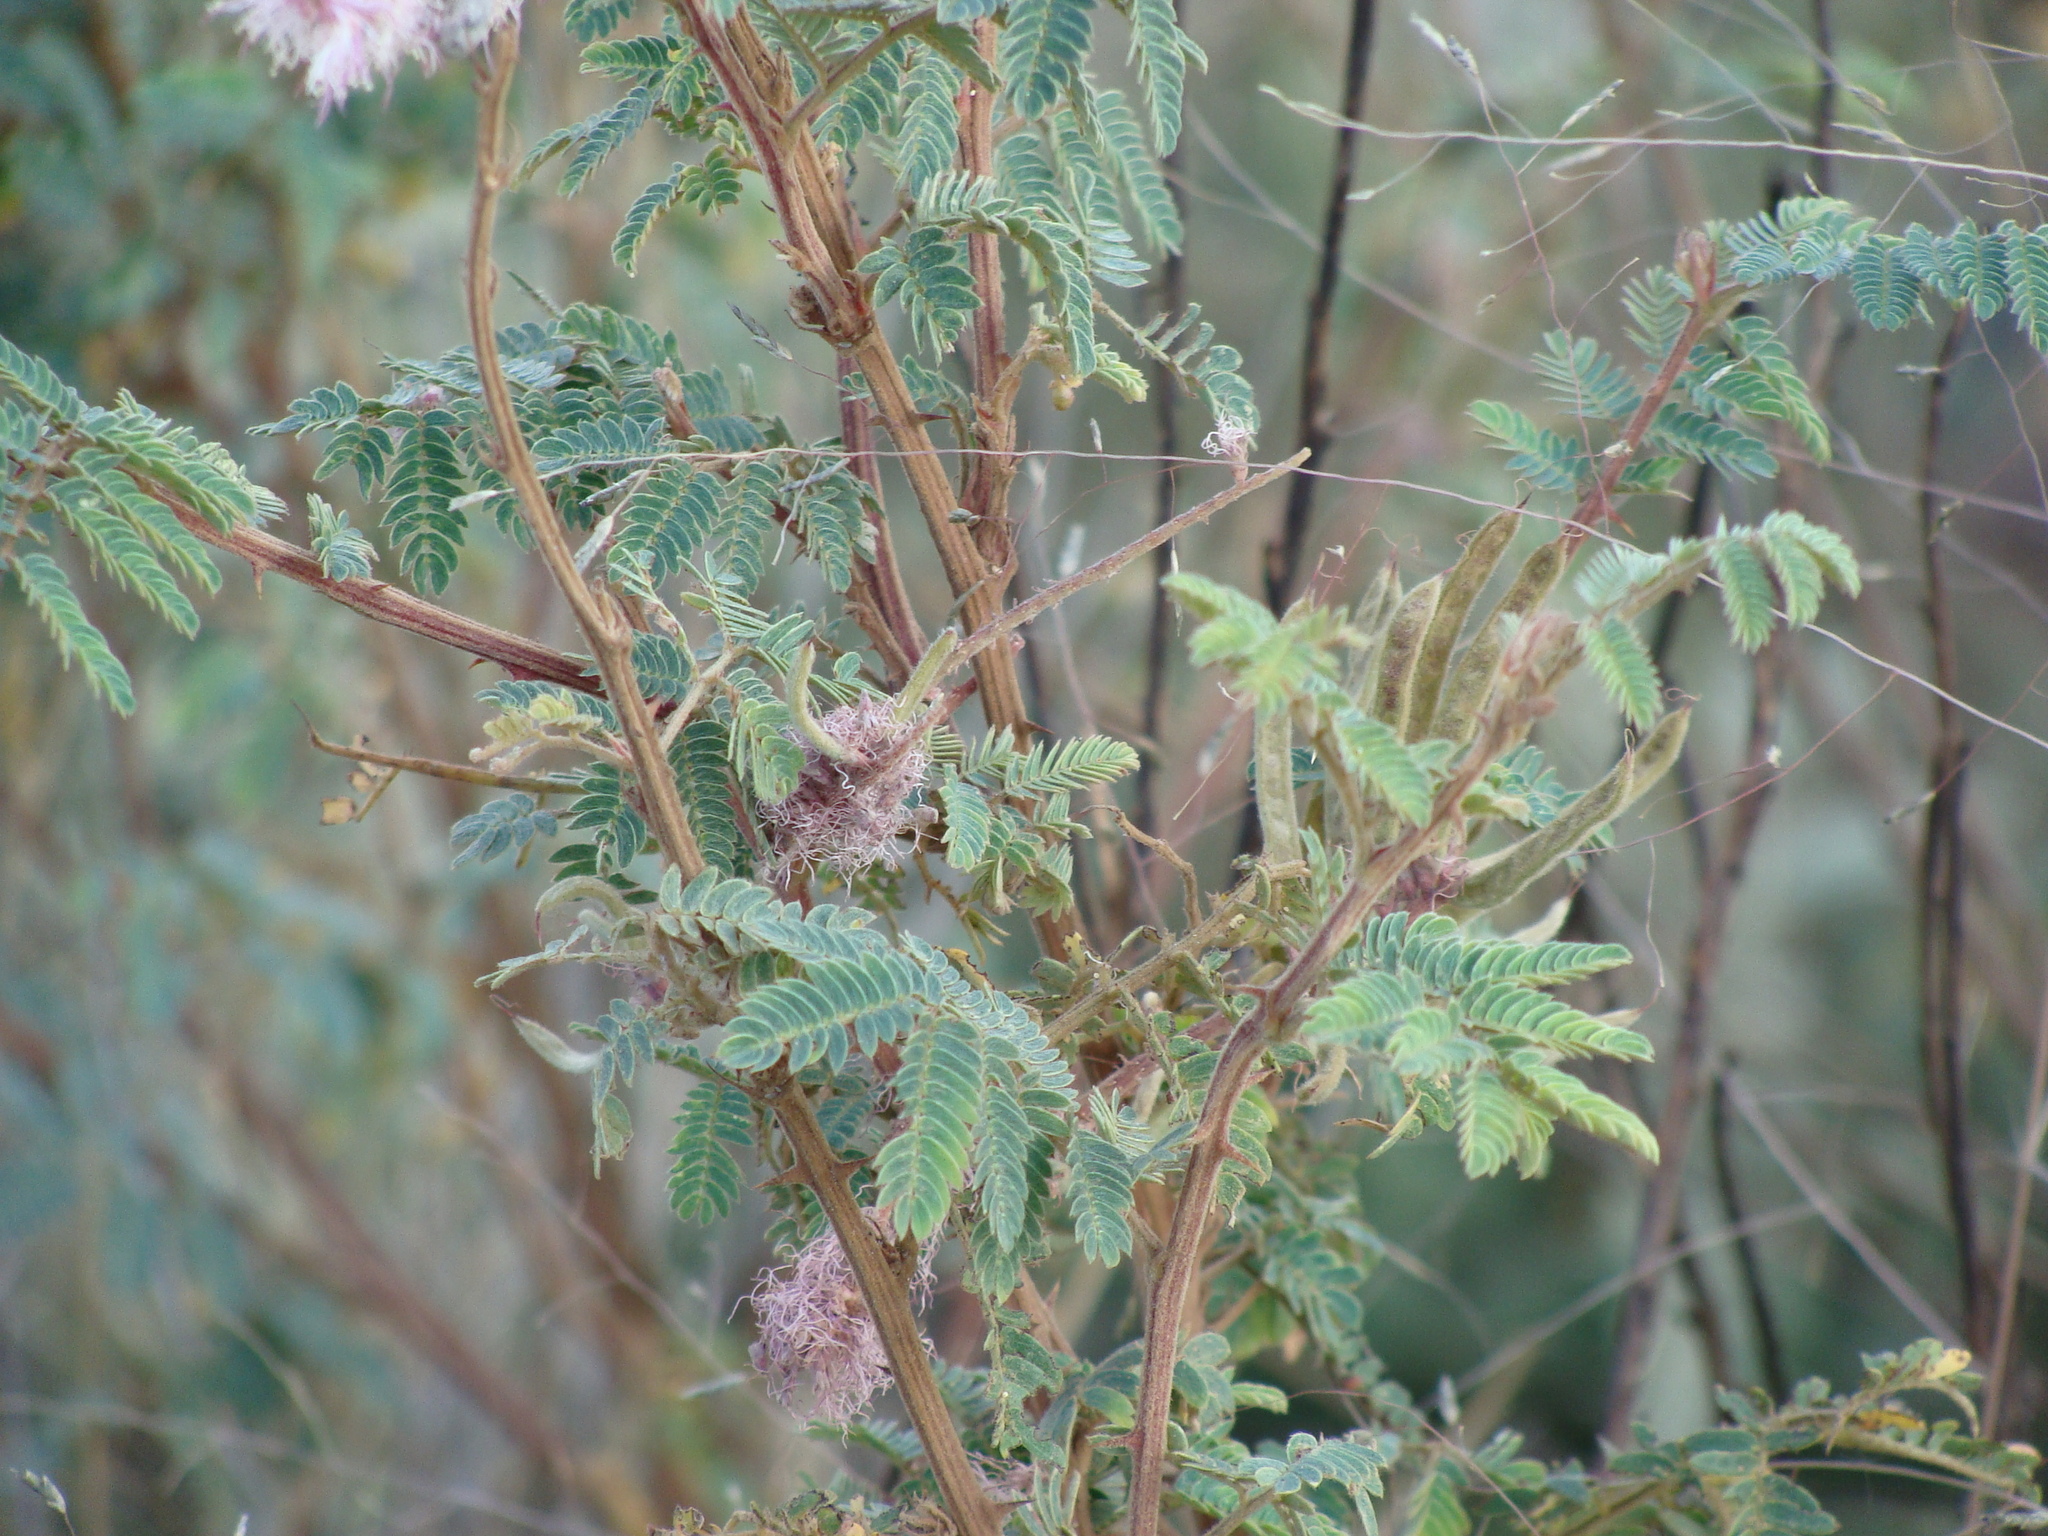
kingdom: Plantae
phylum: Tracheophyta
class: Magnoliopsida
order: Fabales
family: Fabaceae
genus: Mimosa
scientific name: Mimosa dysocarpa
